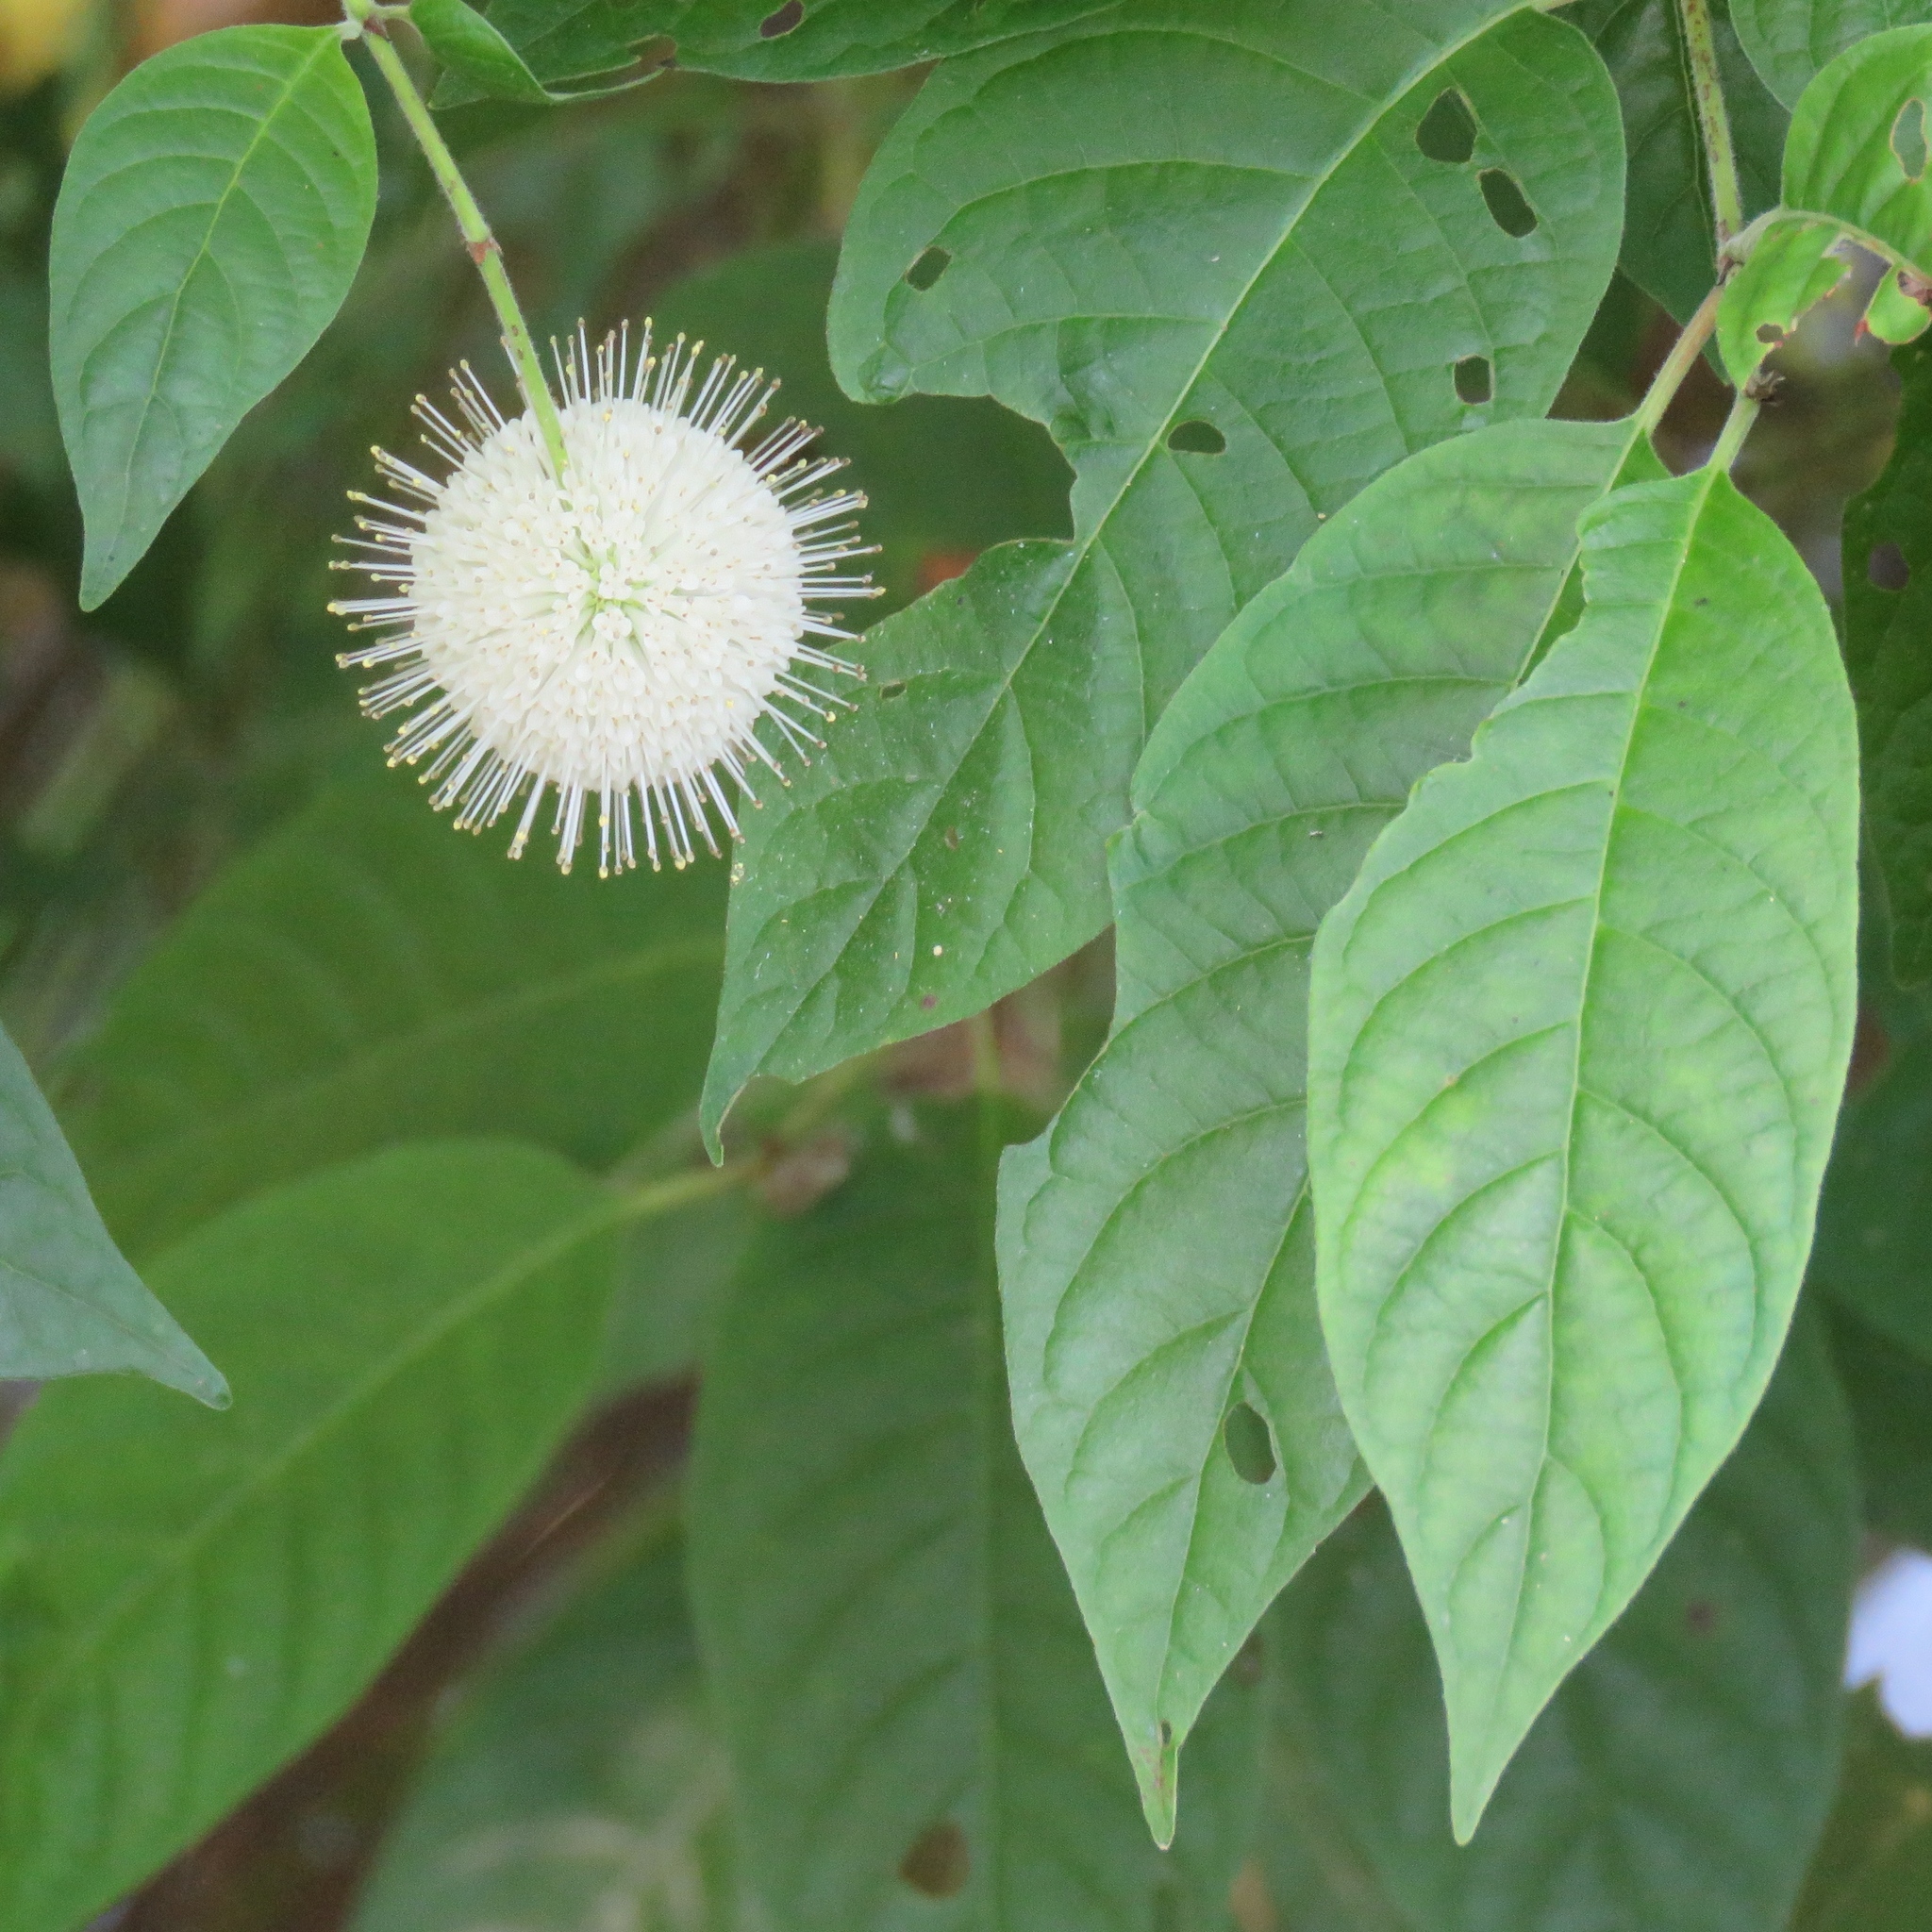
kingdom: Plantae
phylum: Tracheophyta
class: Magnoliopsida
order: Gentianales
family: Rubiaceae
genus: Cephalanthus
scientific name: Cephalanthus occidentalis
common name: Button-willow
